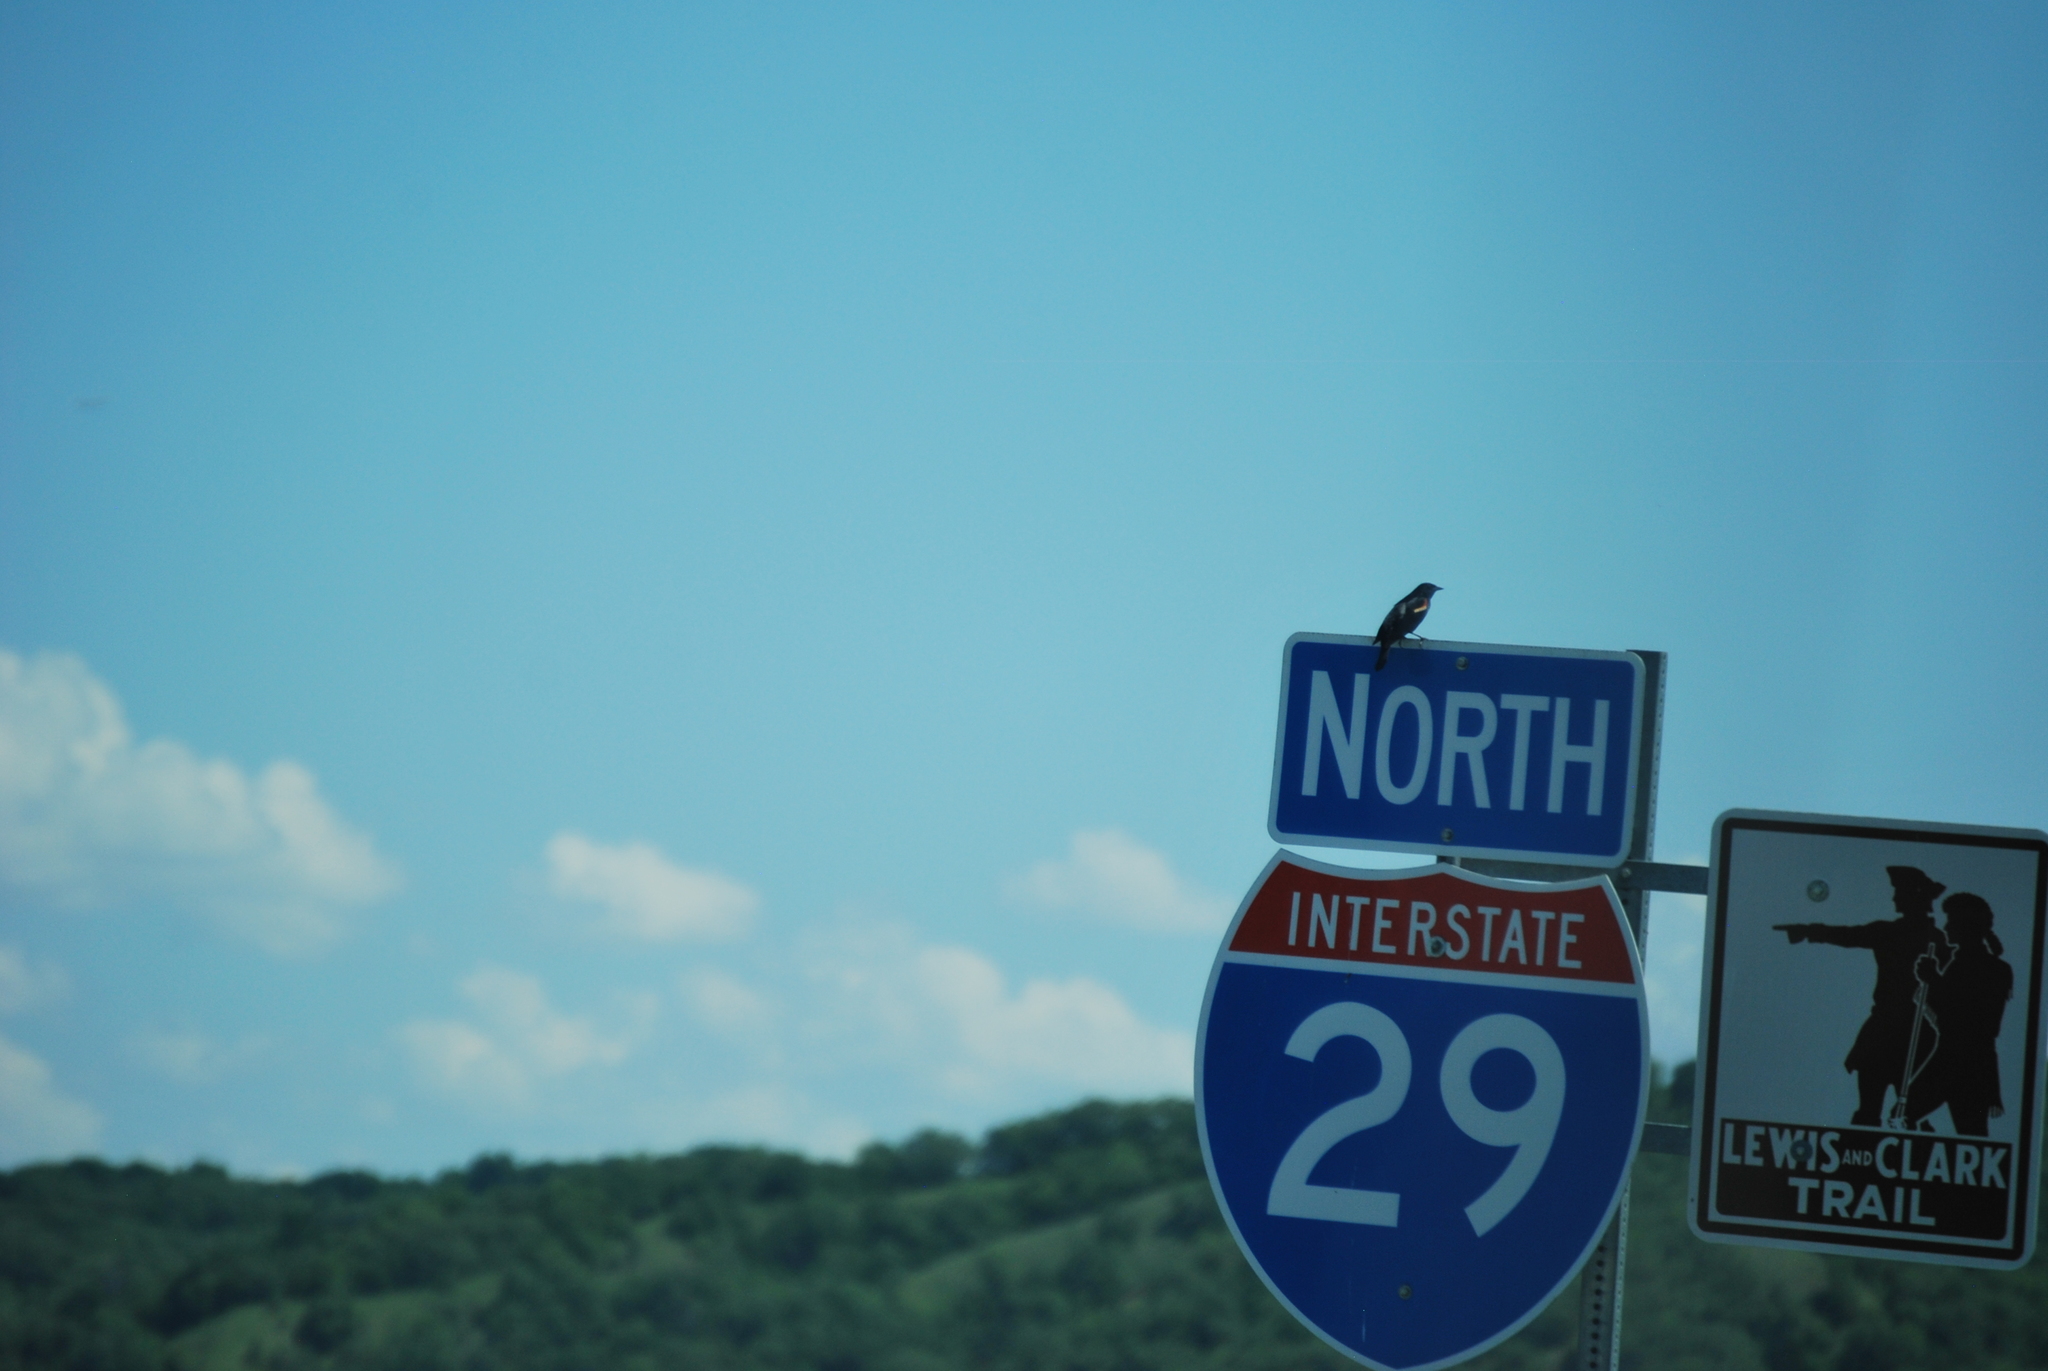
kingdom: Animalia
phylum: Chordata
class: Aves
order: Passeriformes
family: Icteridae
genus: Agelaius
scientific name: Agelaius phoeniceus
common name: Red-winged blackbird
